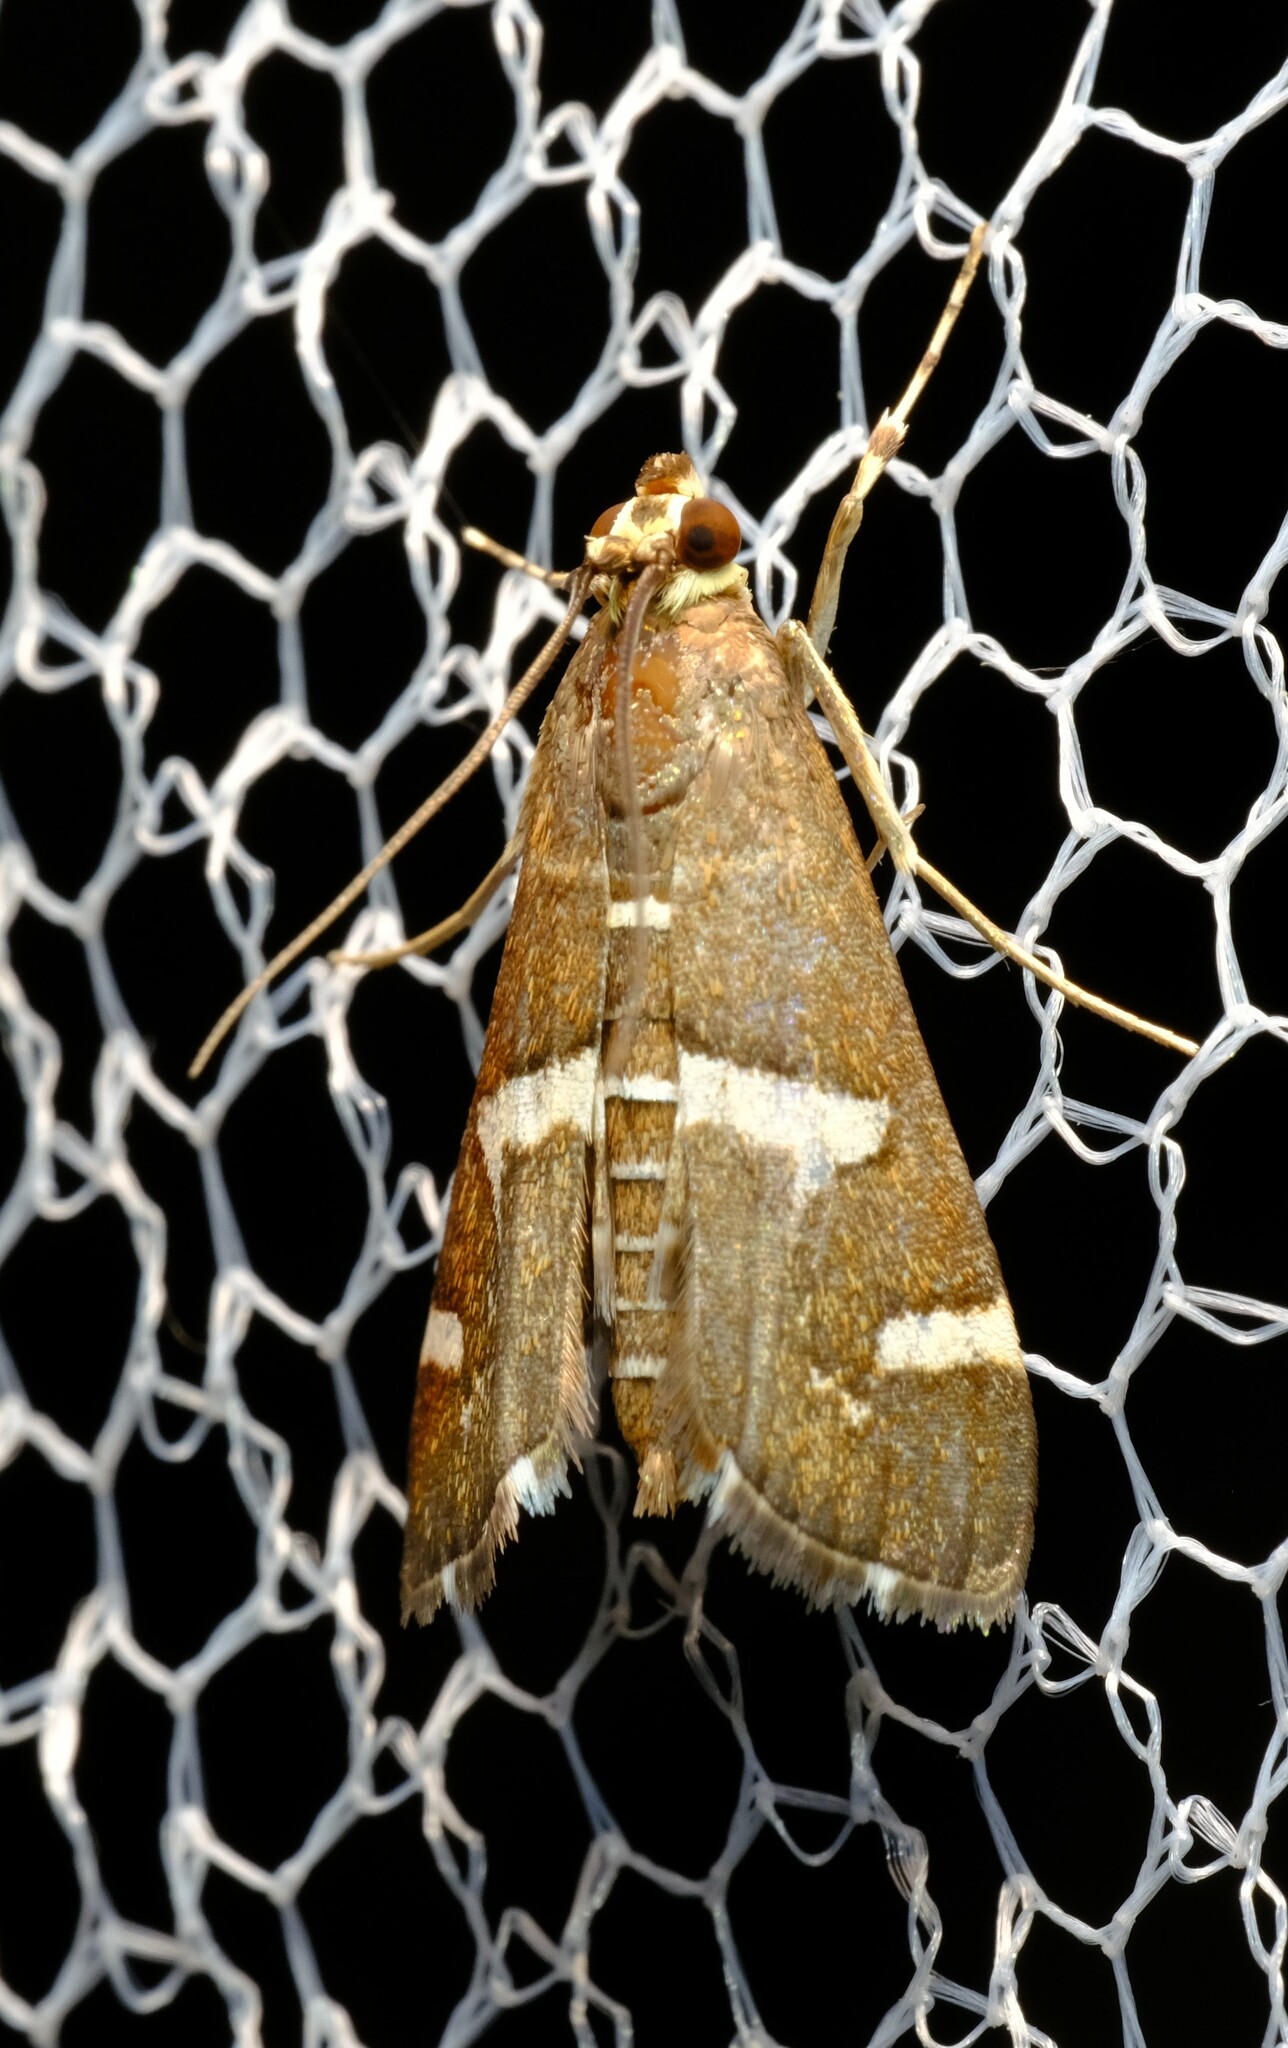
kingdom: Animalia
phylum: Arthropoda
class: Insecta
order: Lepidoptera
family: Crambidae
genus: Spoladea
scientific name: Spoladea recurvalis
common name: Beet webworm moth
